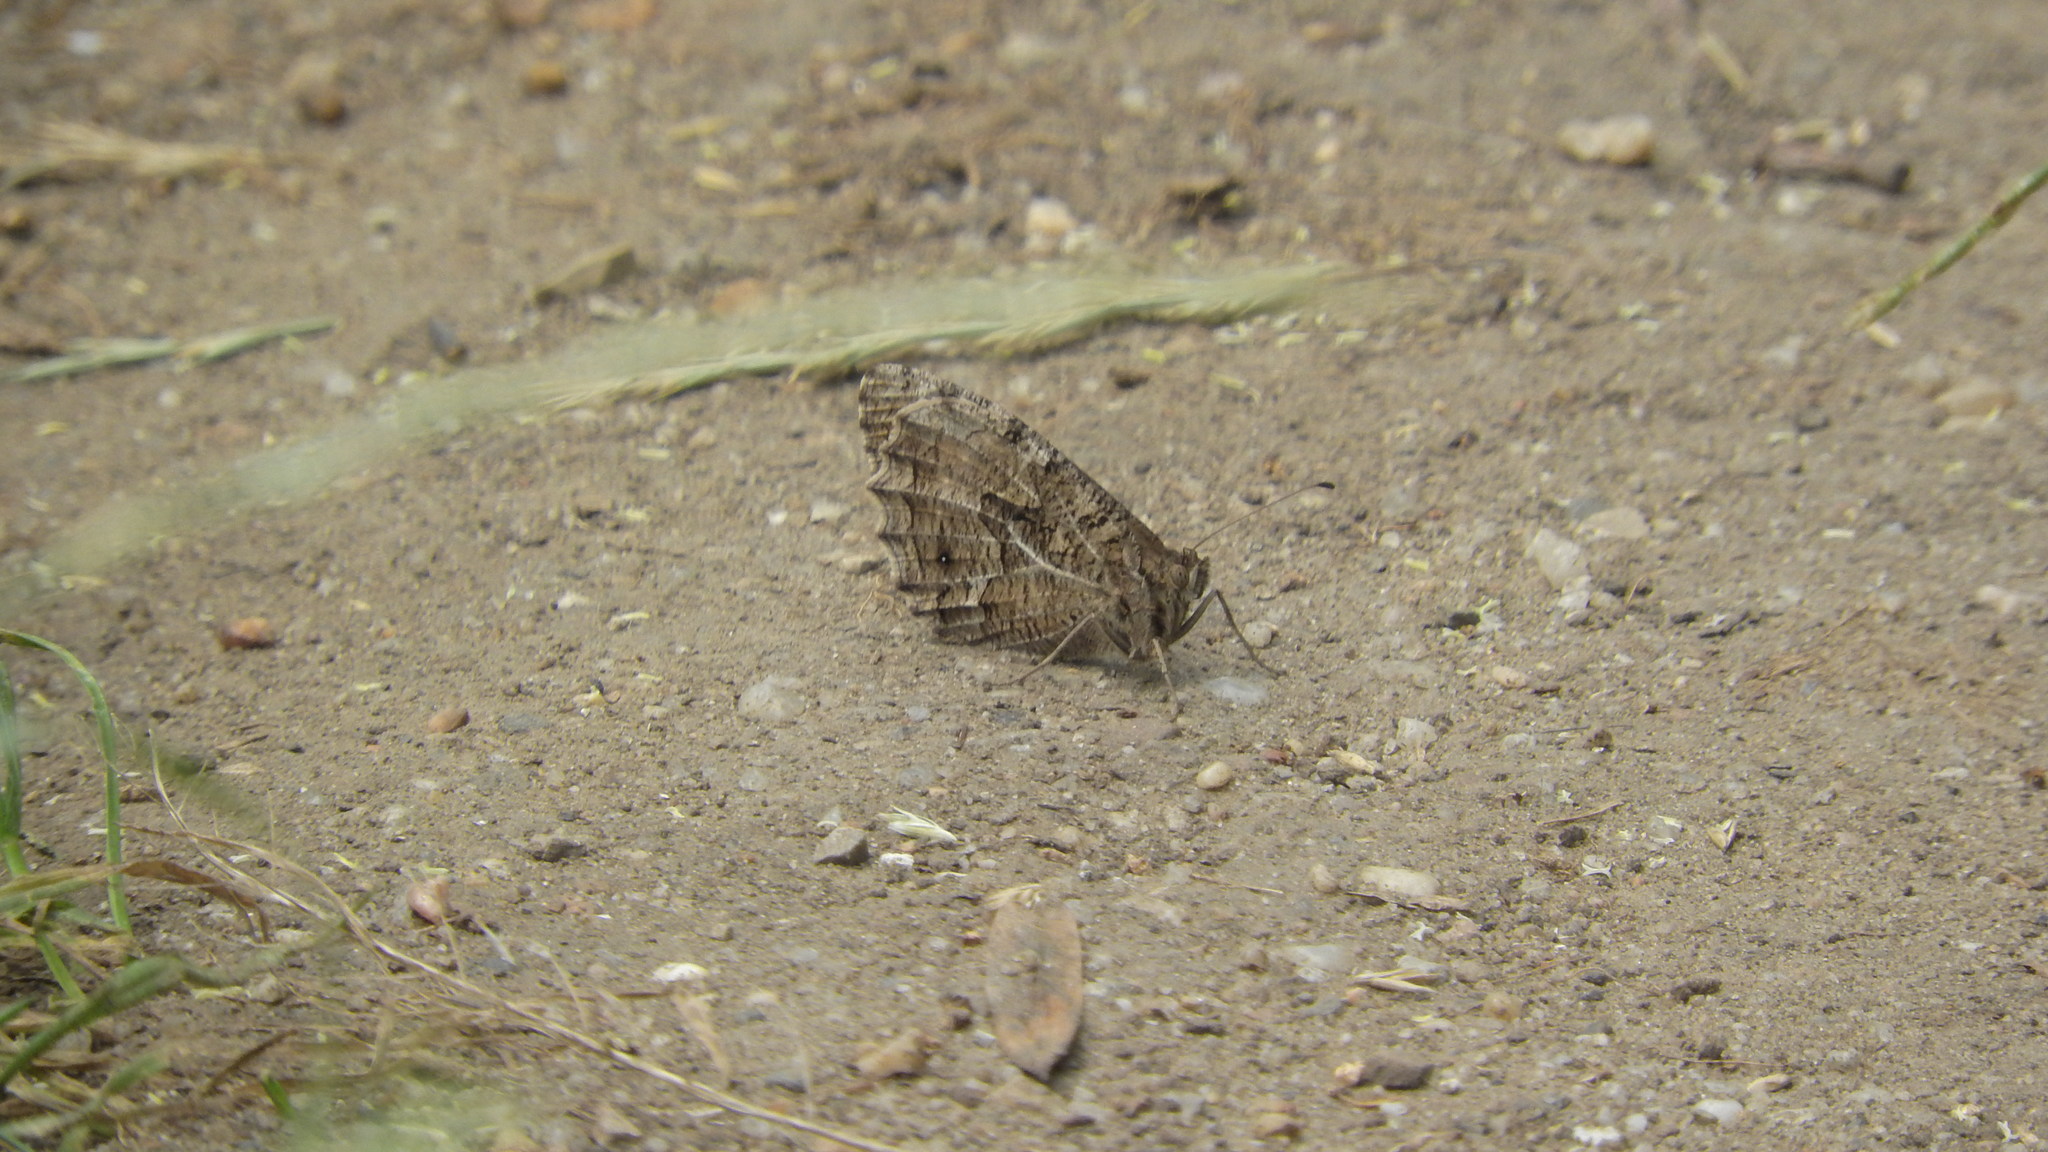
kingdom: Animalia
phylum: Arthropoda
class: Insecta
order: Lepidoptera
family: Nymphalidae
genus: Hipparchia
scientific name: Hipparchia semele
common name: Grayling
